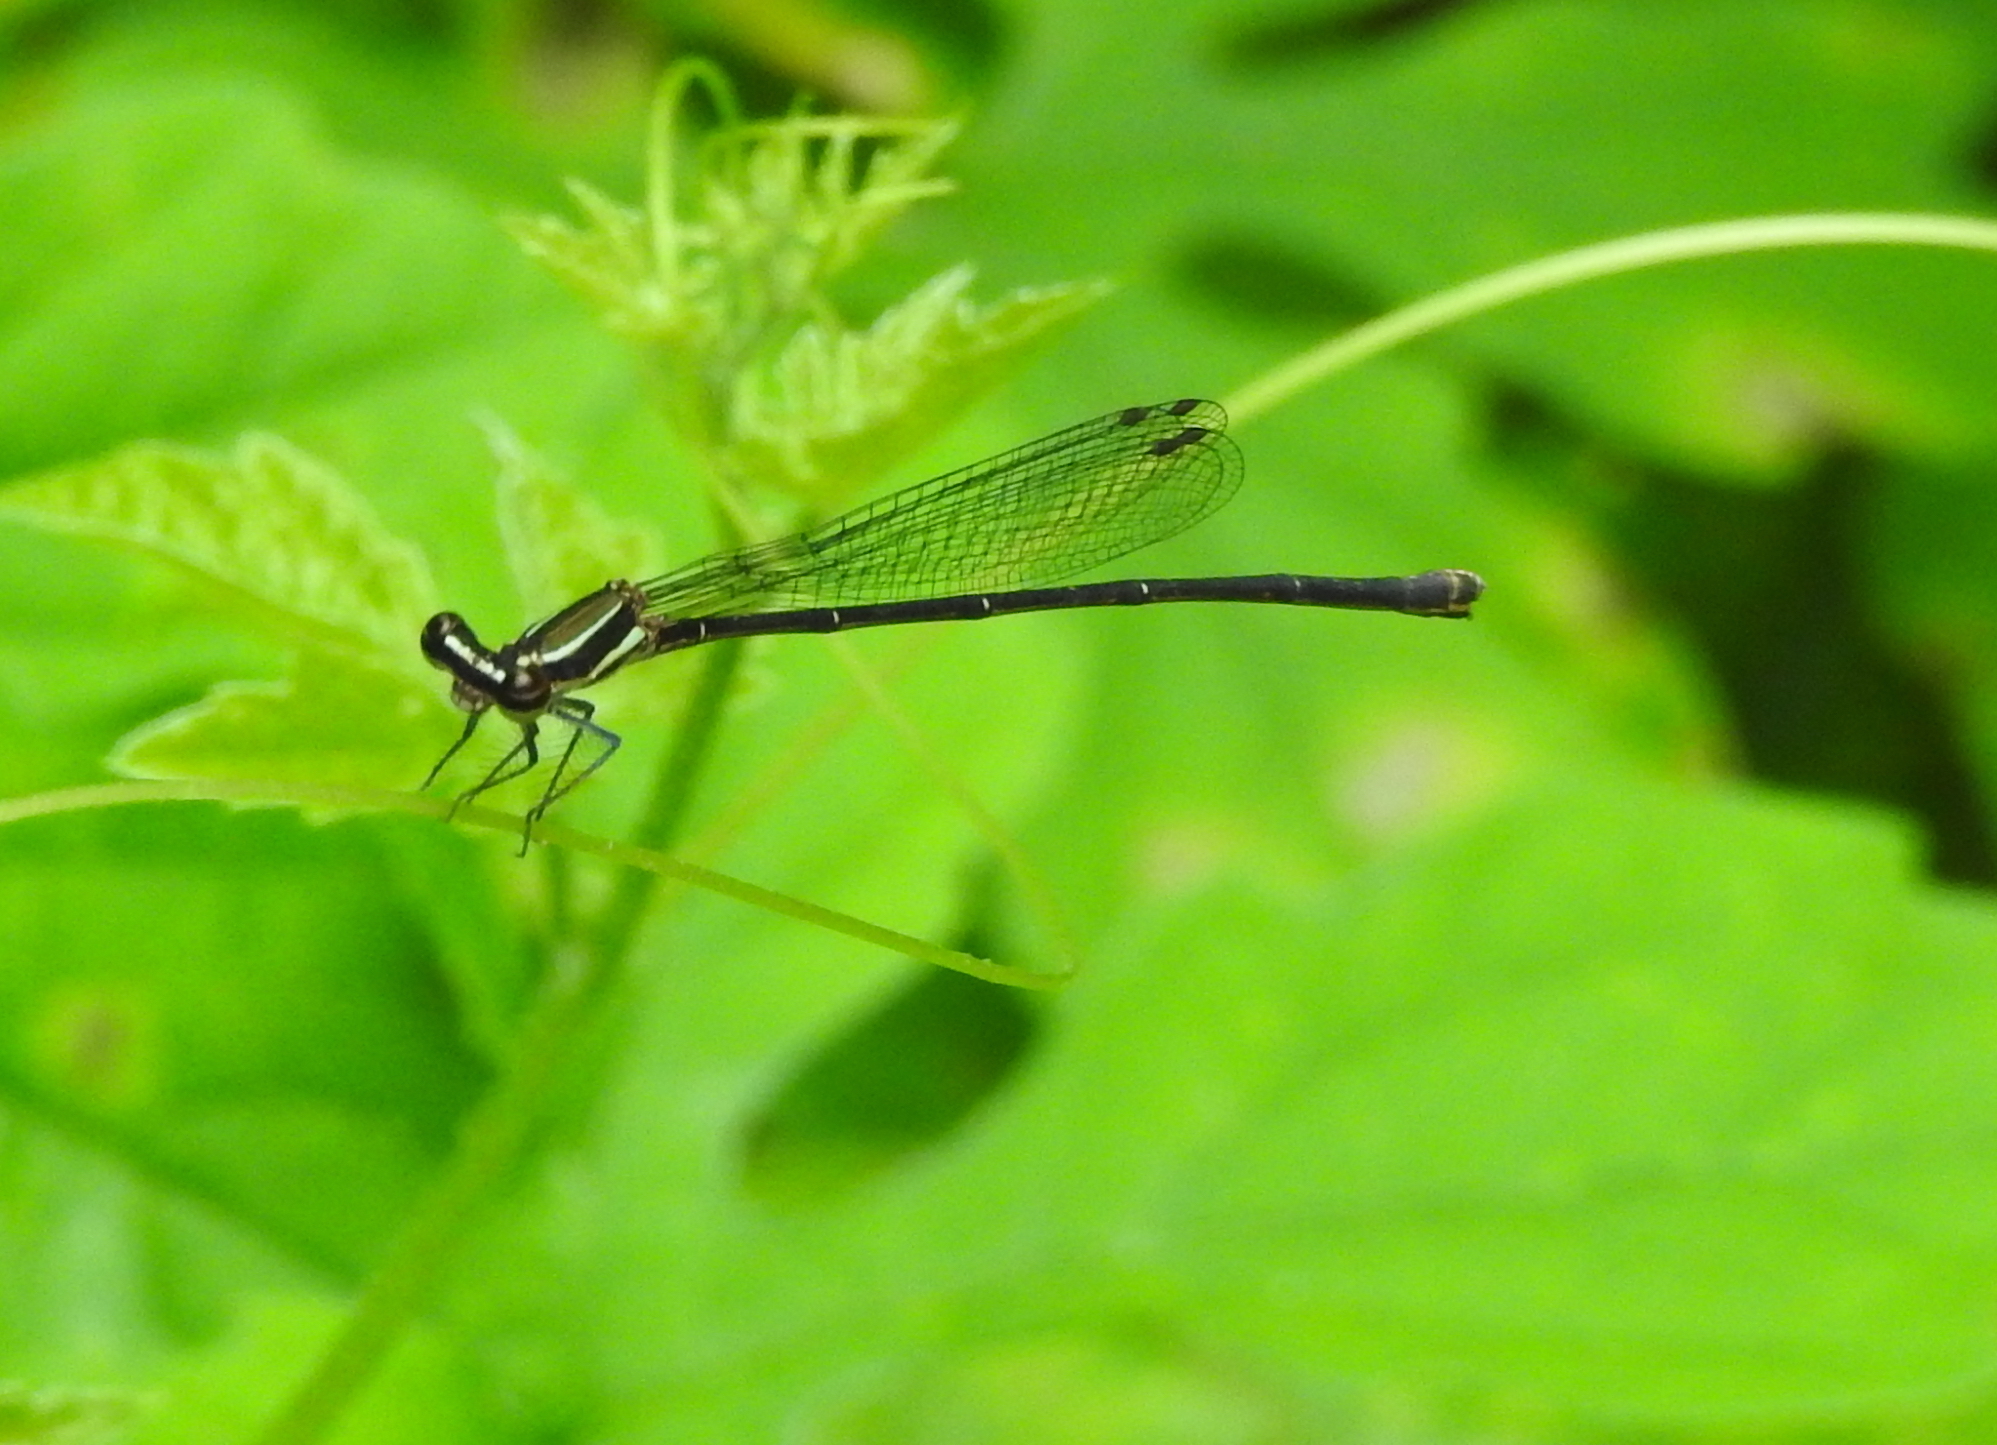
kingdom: Animalia
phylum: Arthropoda
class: Insecta
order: Odonata
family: Platycnemididae
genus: Prodasineura
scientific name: Prodasineura autumnalis
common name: Black threadtail
